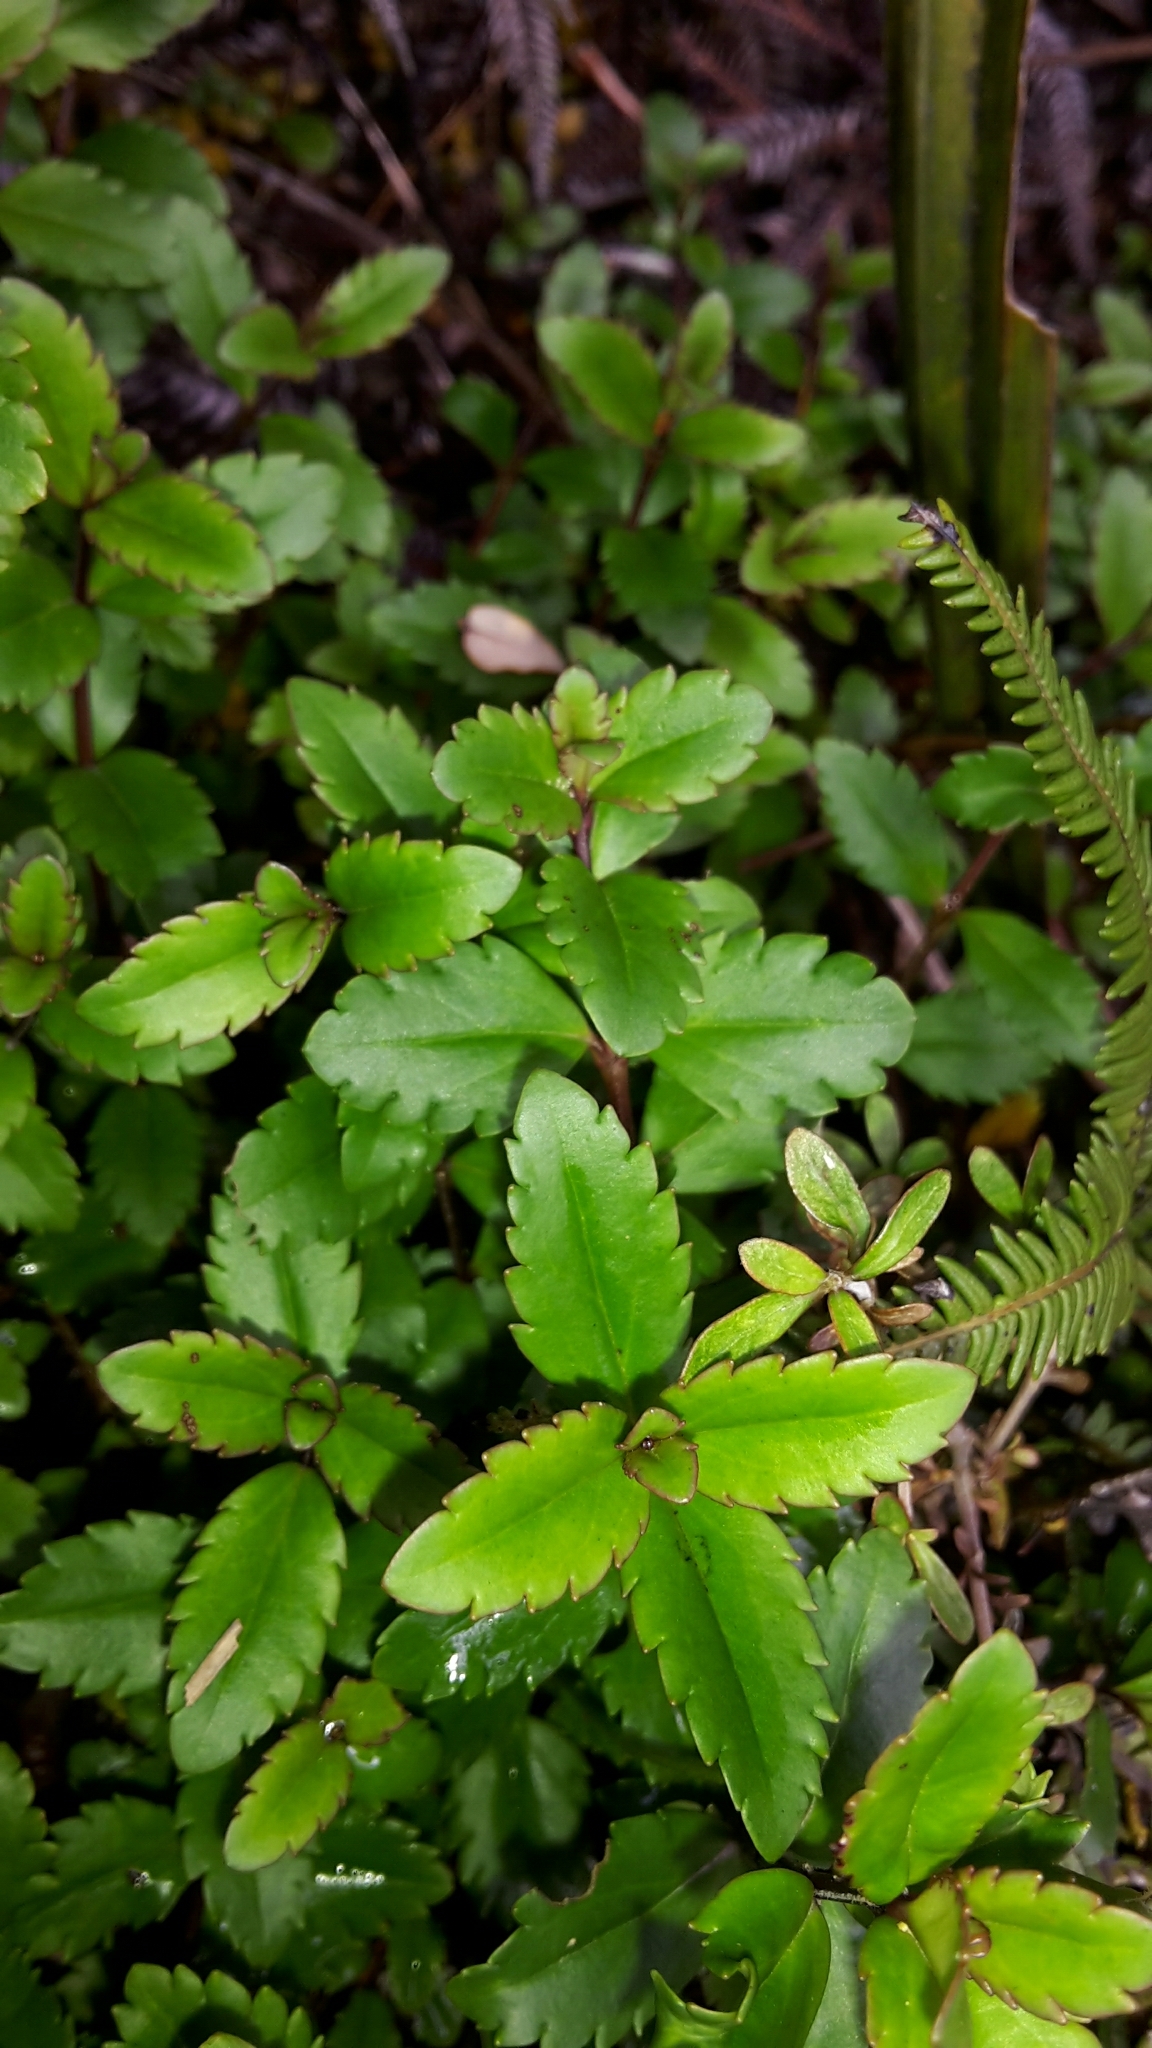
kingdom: Plantae
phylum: Tracheophyta
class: Magnoliopsida
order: Lamiales
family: Plantaginaceae
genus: Veronica
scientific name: Veronica lanceolata
